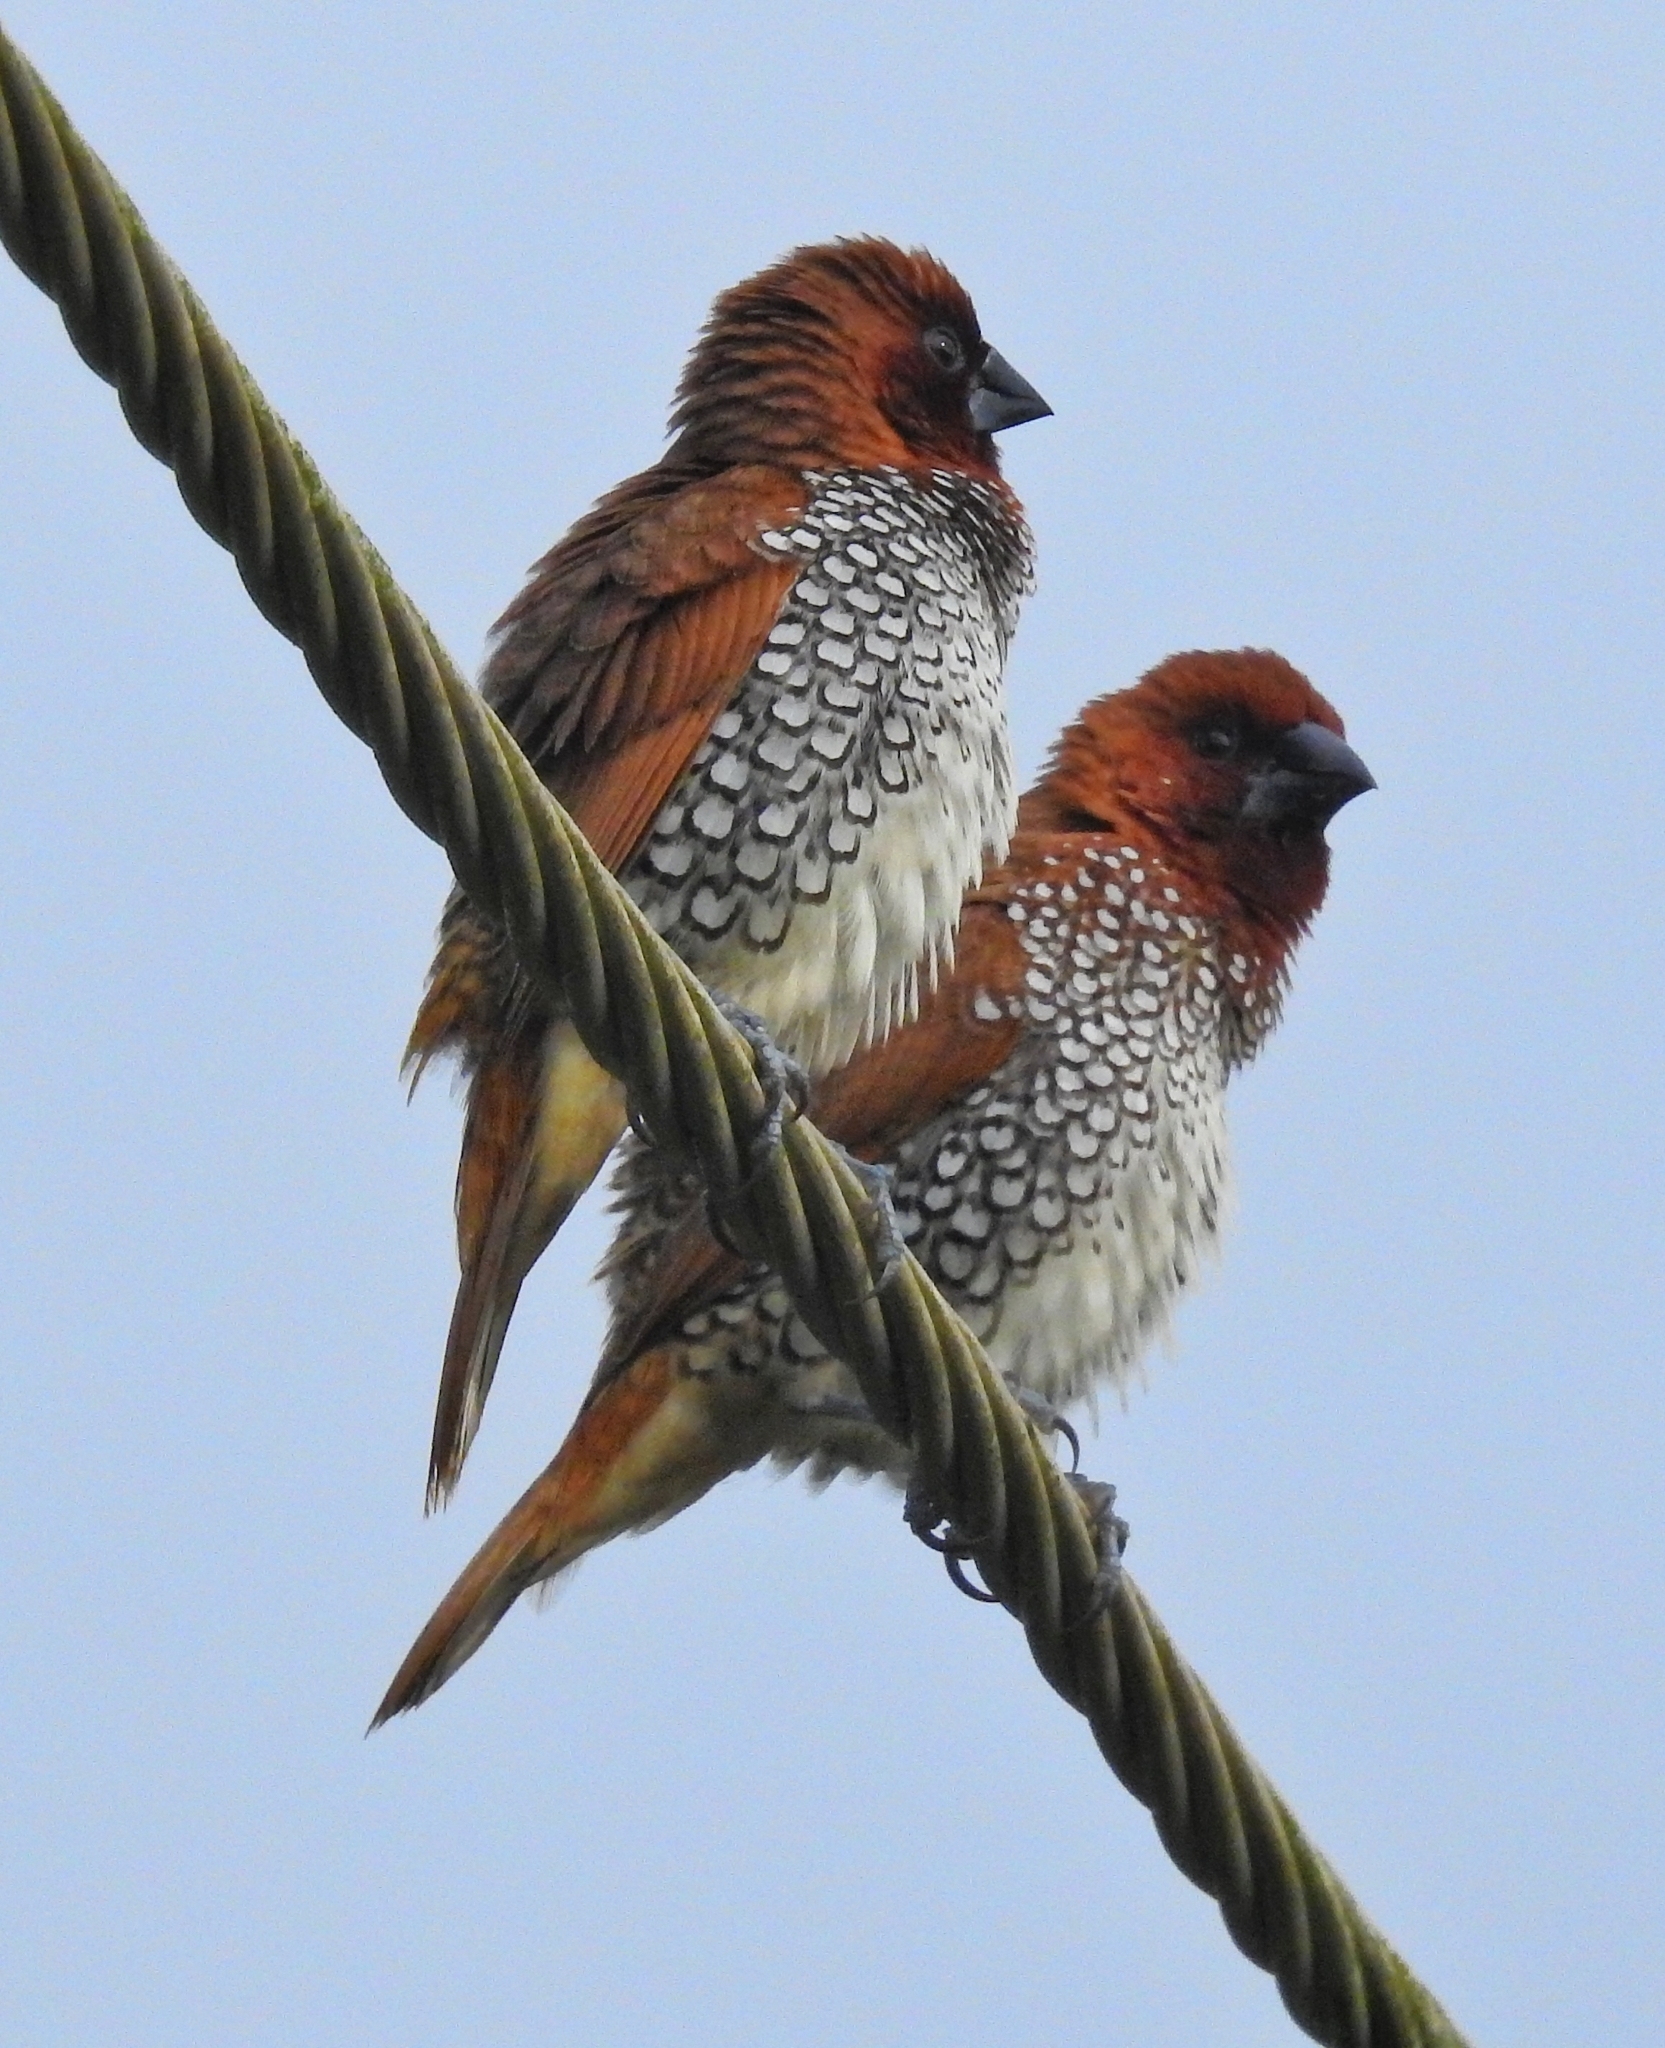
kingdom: Animalia
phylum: Chordata
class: Aves
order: Passeriformes
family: Estrildidae
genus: Lonchura
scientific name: Lonchura punctulata
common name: Scaly-breasted munia
